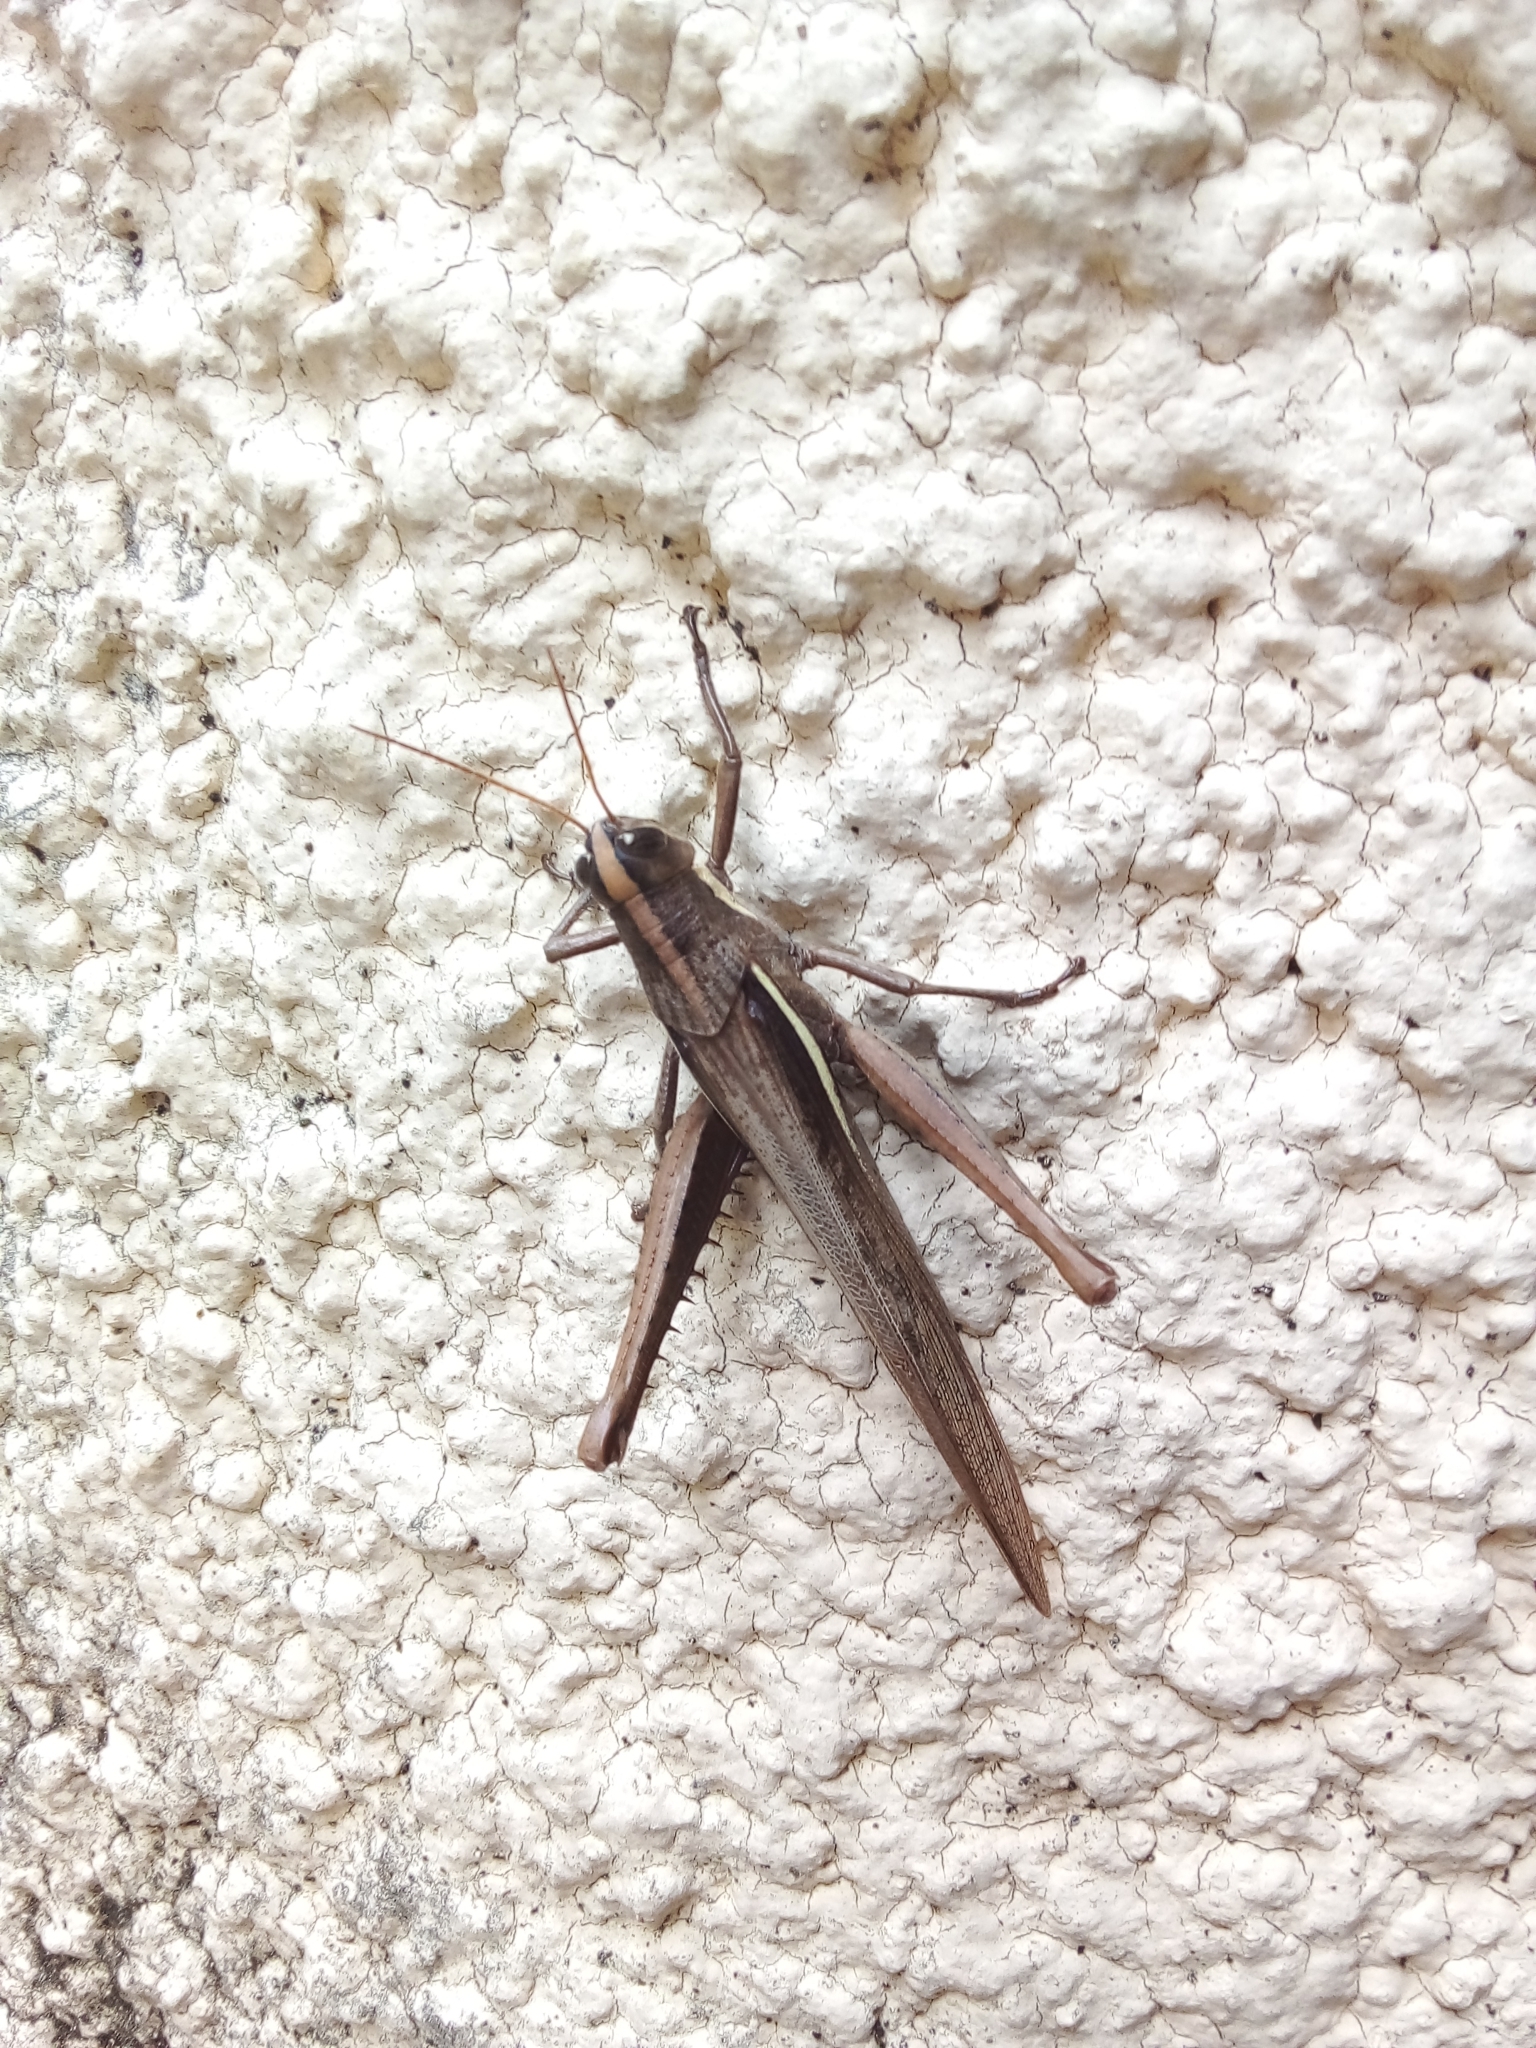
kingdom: Animalia
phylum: Arthropoda
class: Insecta
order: Orthoptera
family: Acrididae
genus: Schistocerca
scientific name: Schistocerca flavofasciata
